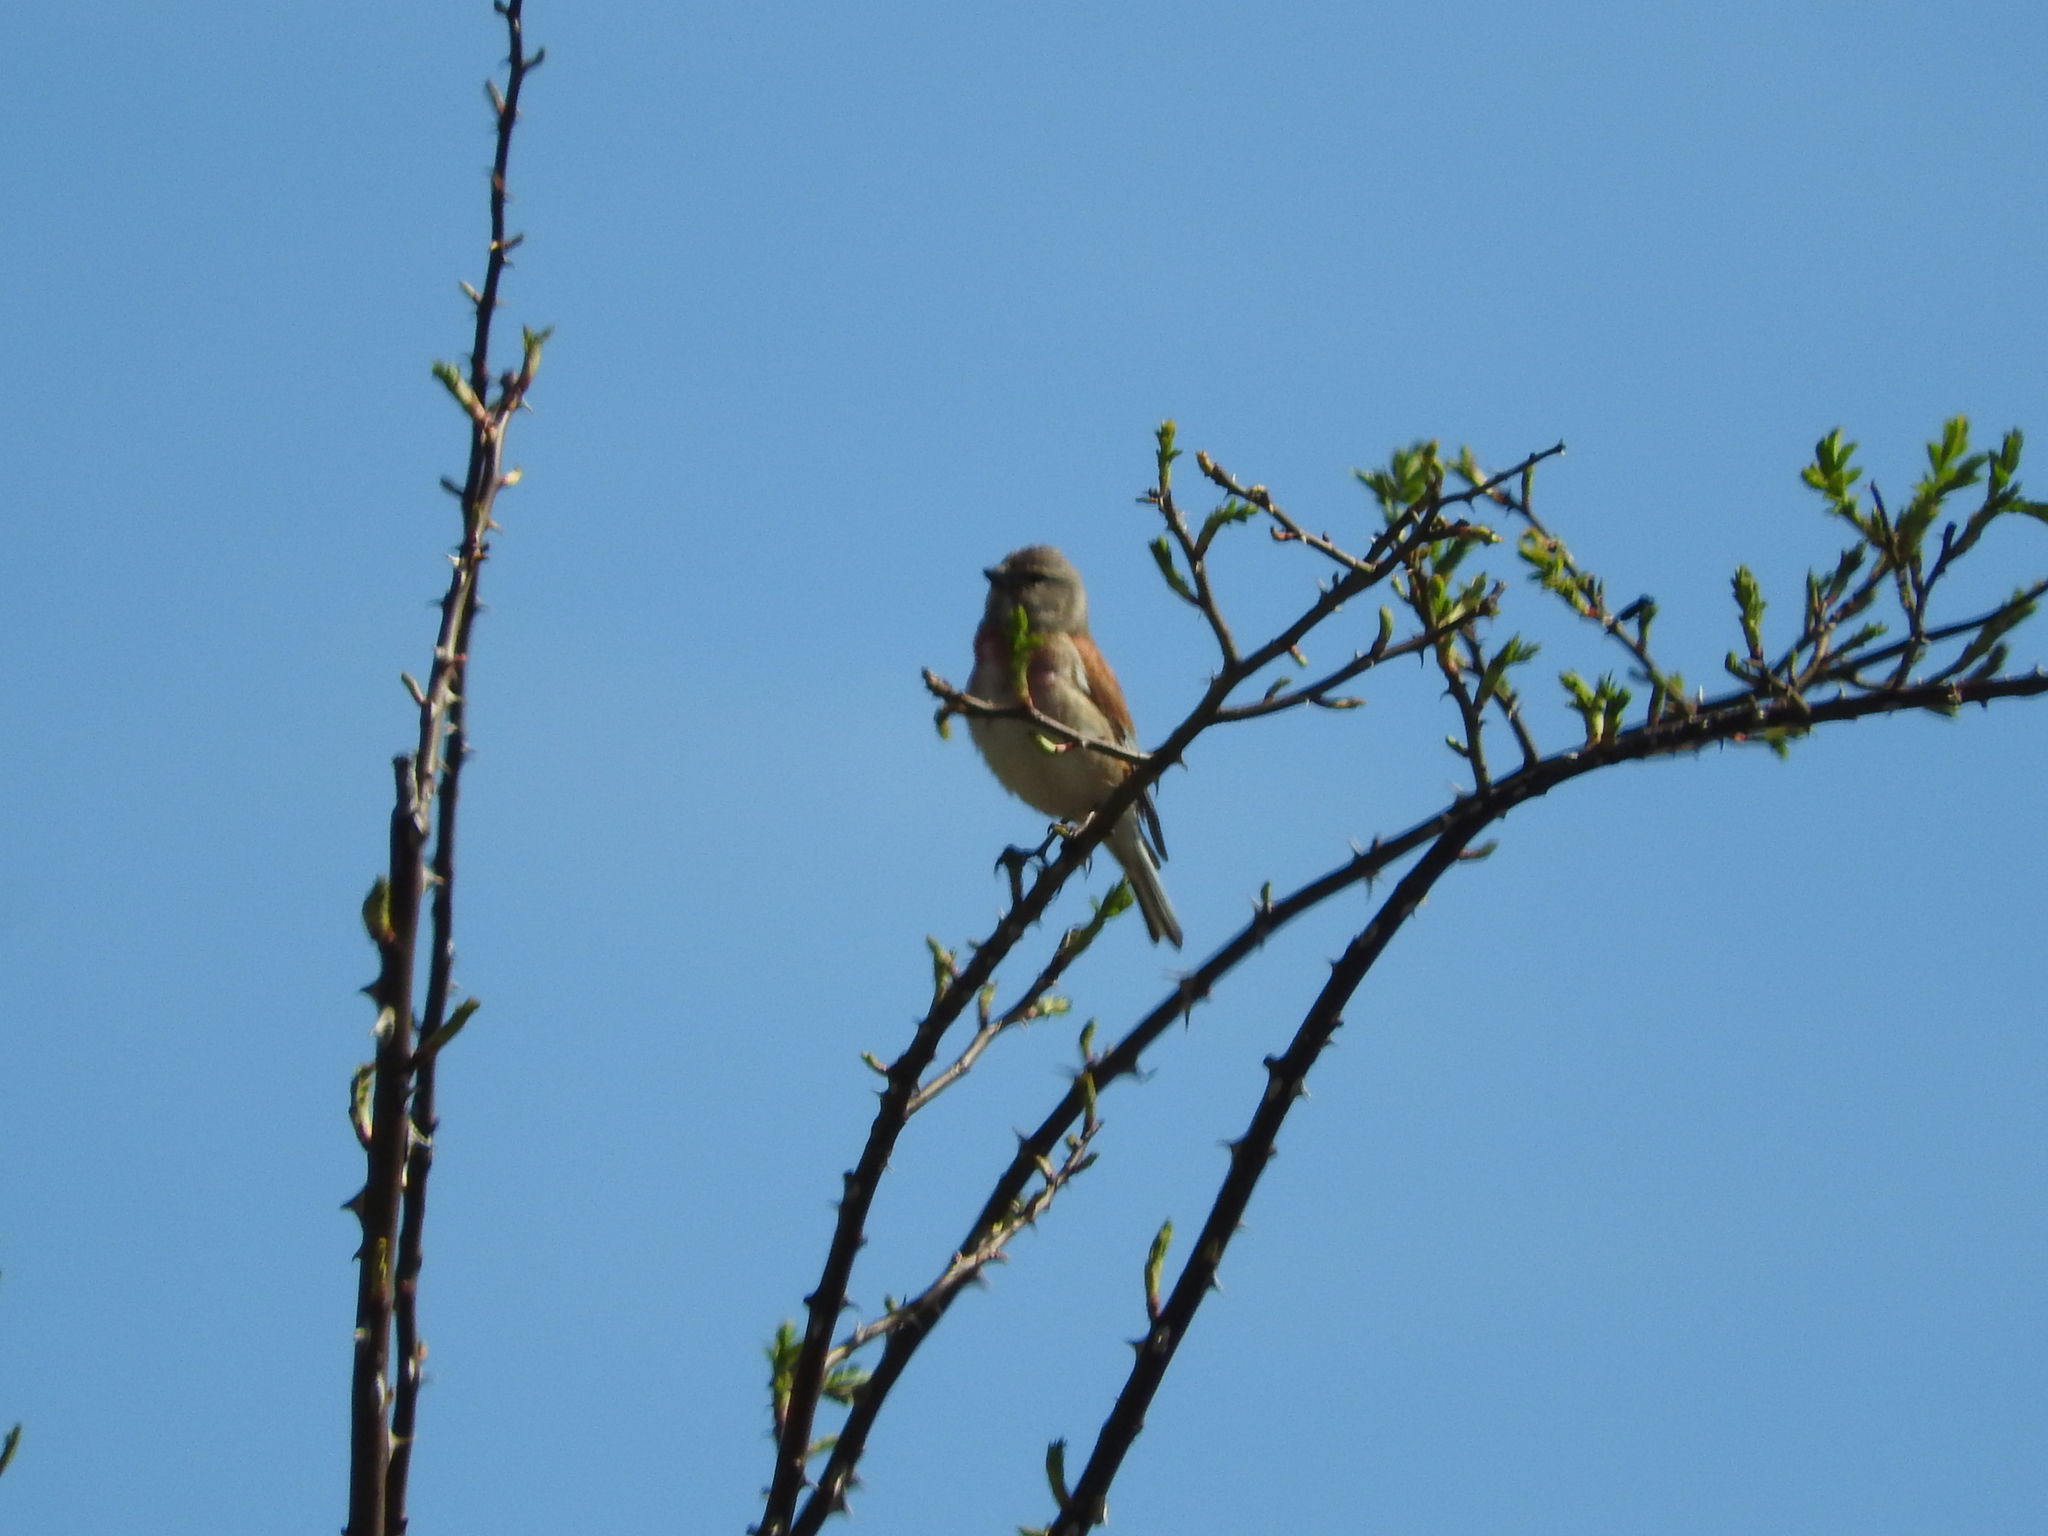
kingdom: Animalia
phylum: Chordata
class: Aves
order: Passeriformes
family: Fringillidae
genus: Linaria
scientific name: Linaria cannabina
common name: Common linnet
